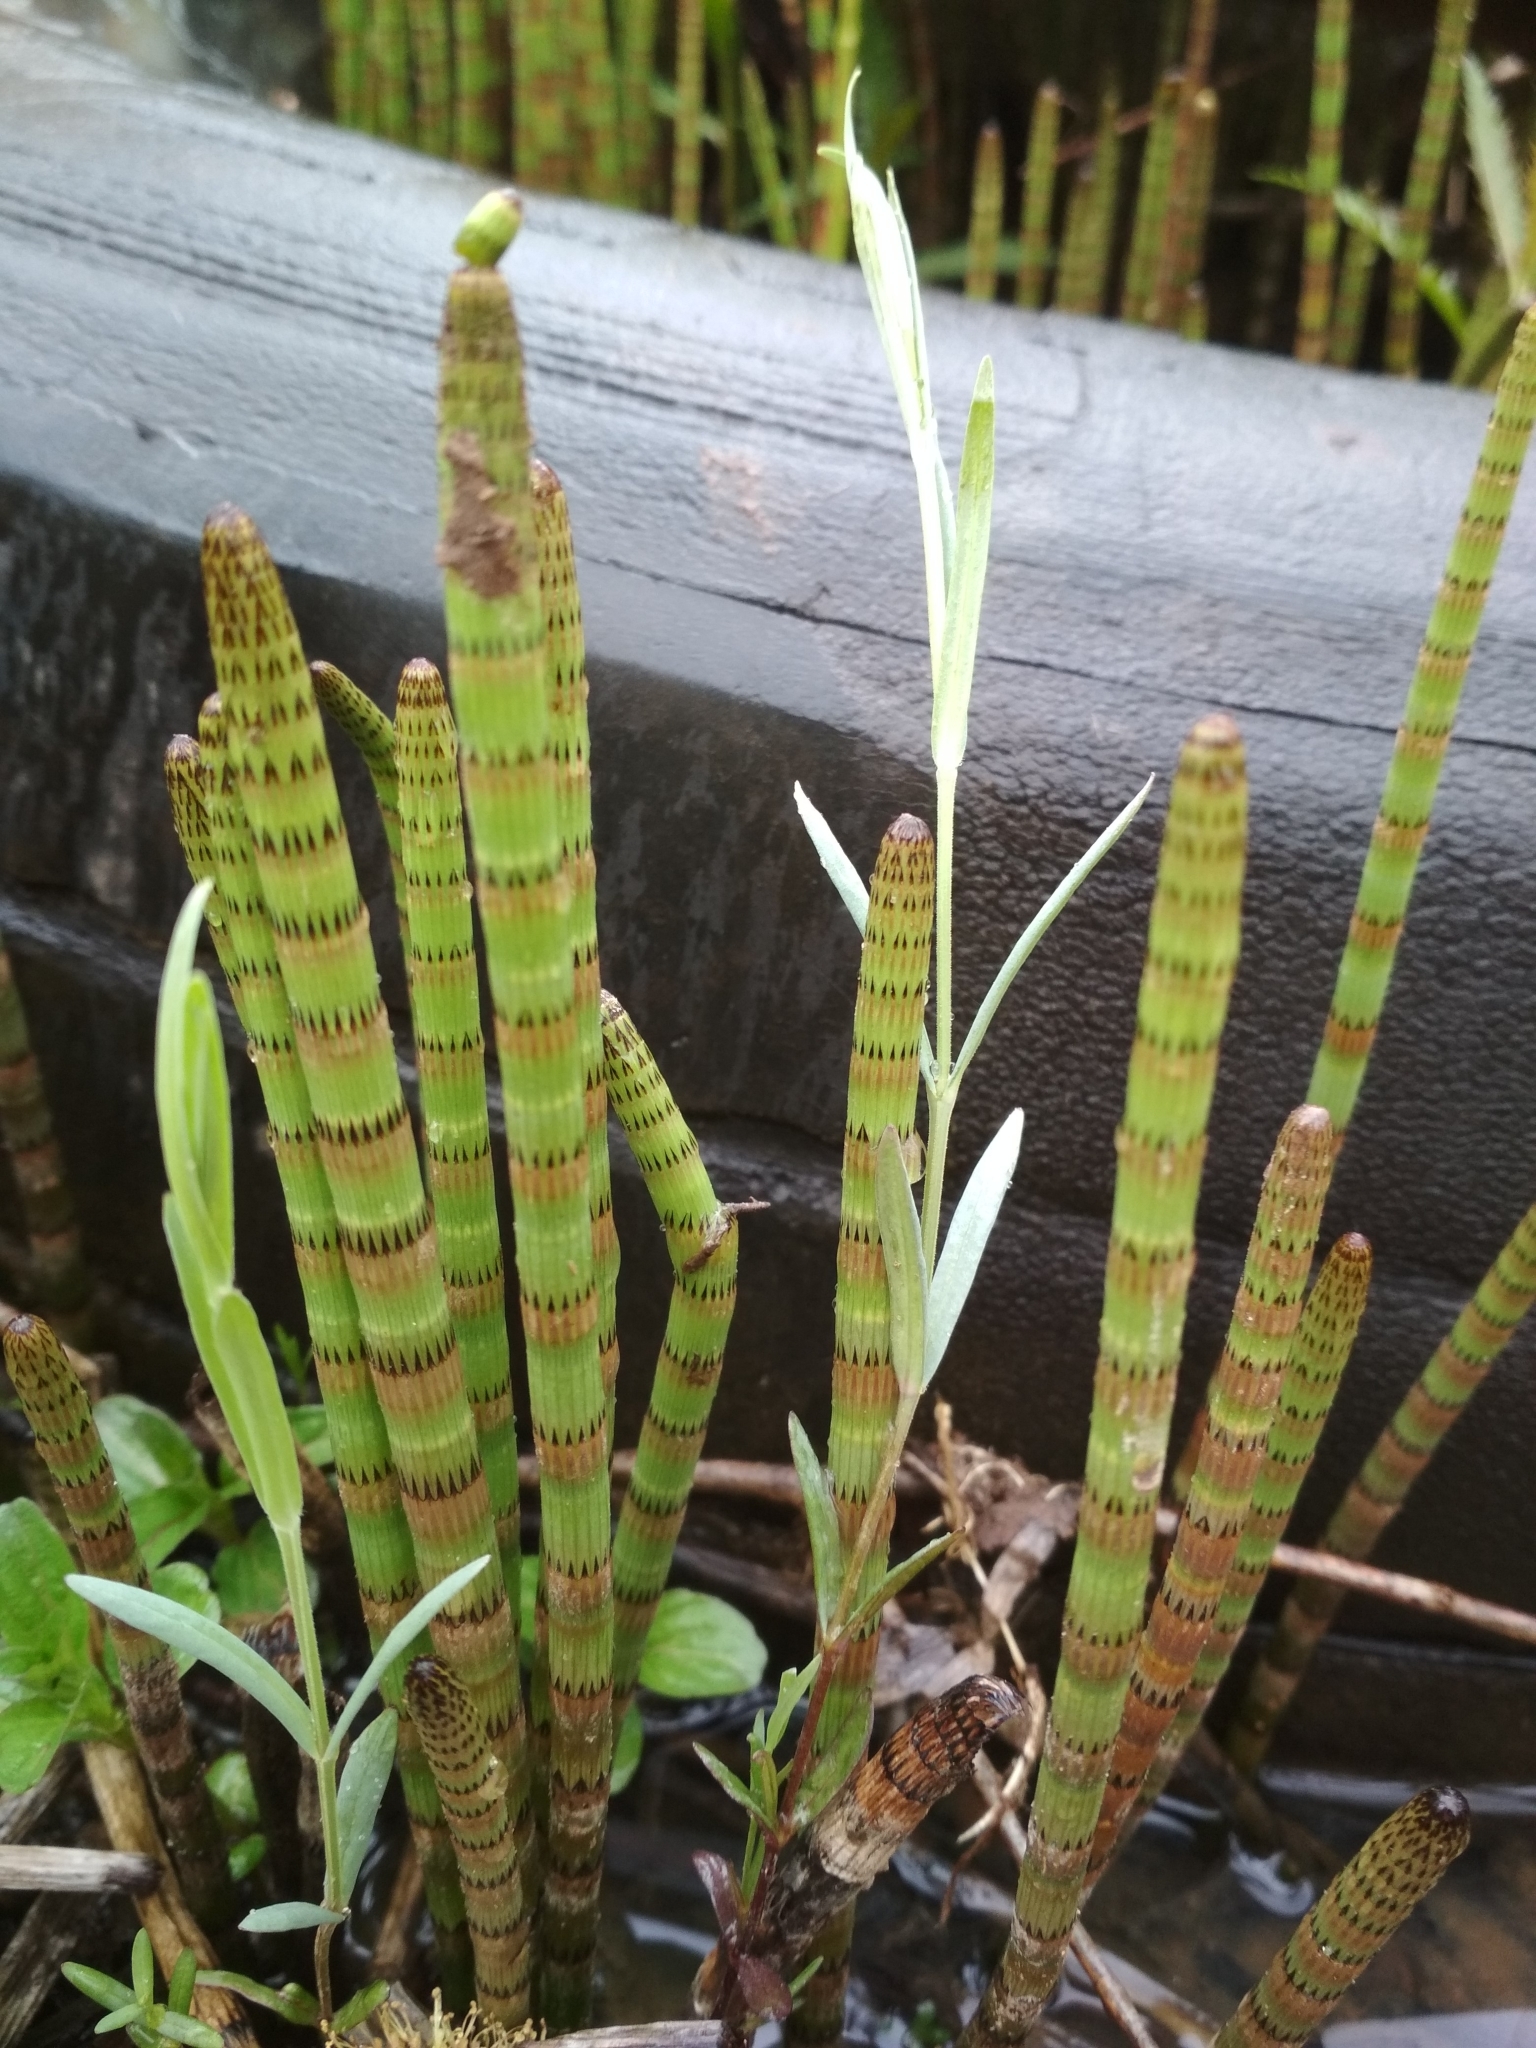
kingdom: Plantae
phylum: Tracheophyta
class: Polypodiopsida
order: Equisetales
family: Equisetaceae
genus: Equisetum
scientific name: Equisetum fluviatile
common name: Water horsetail
